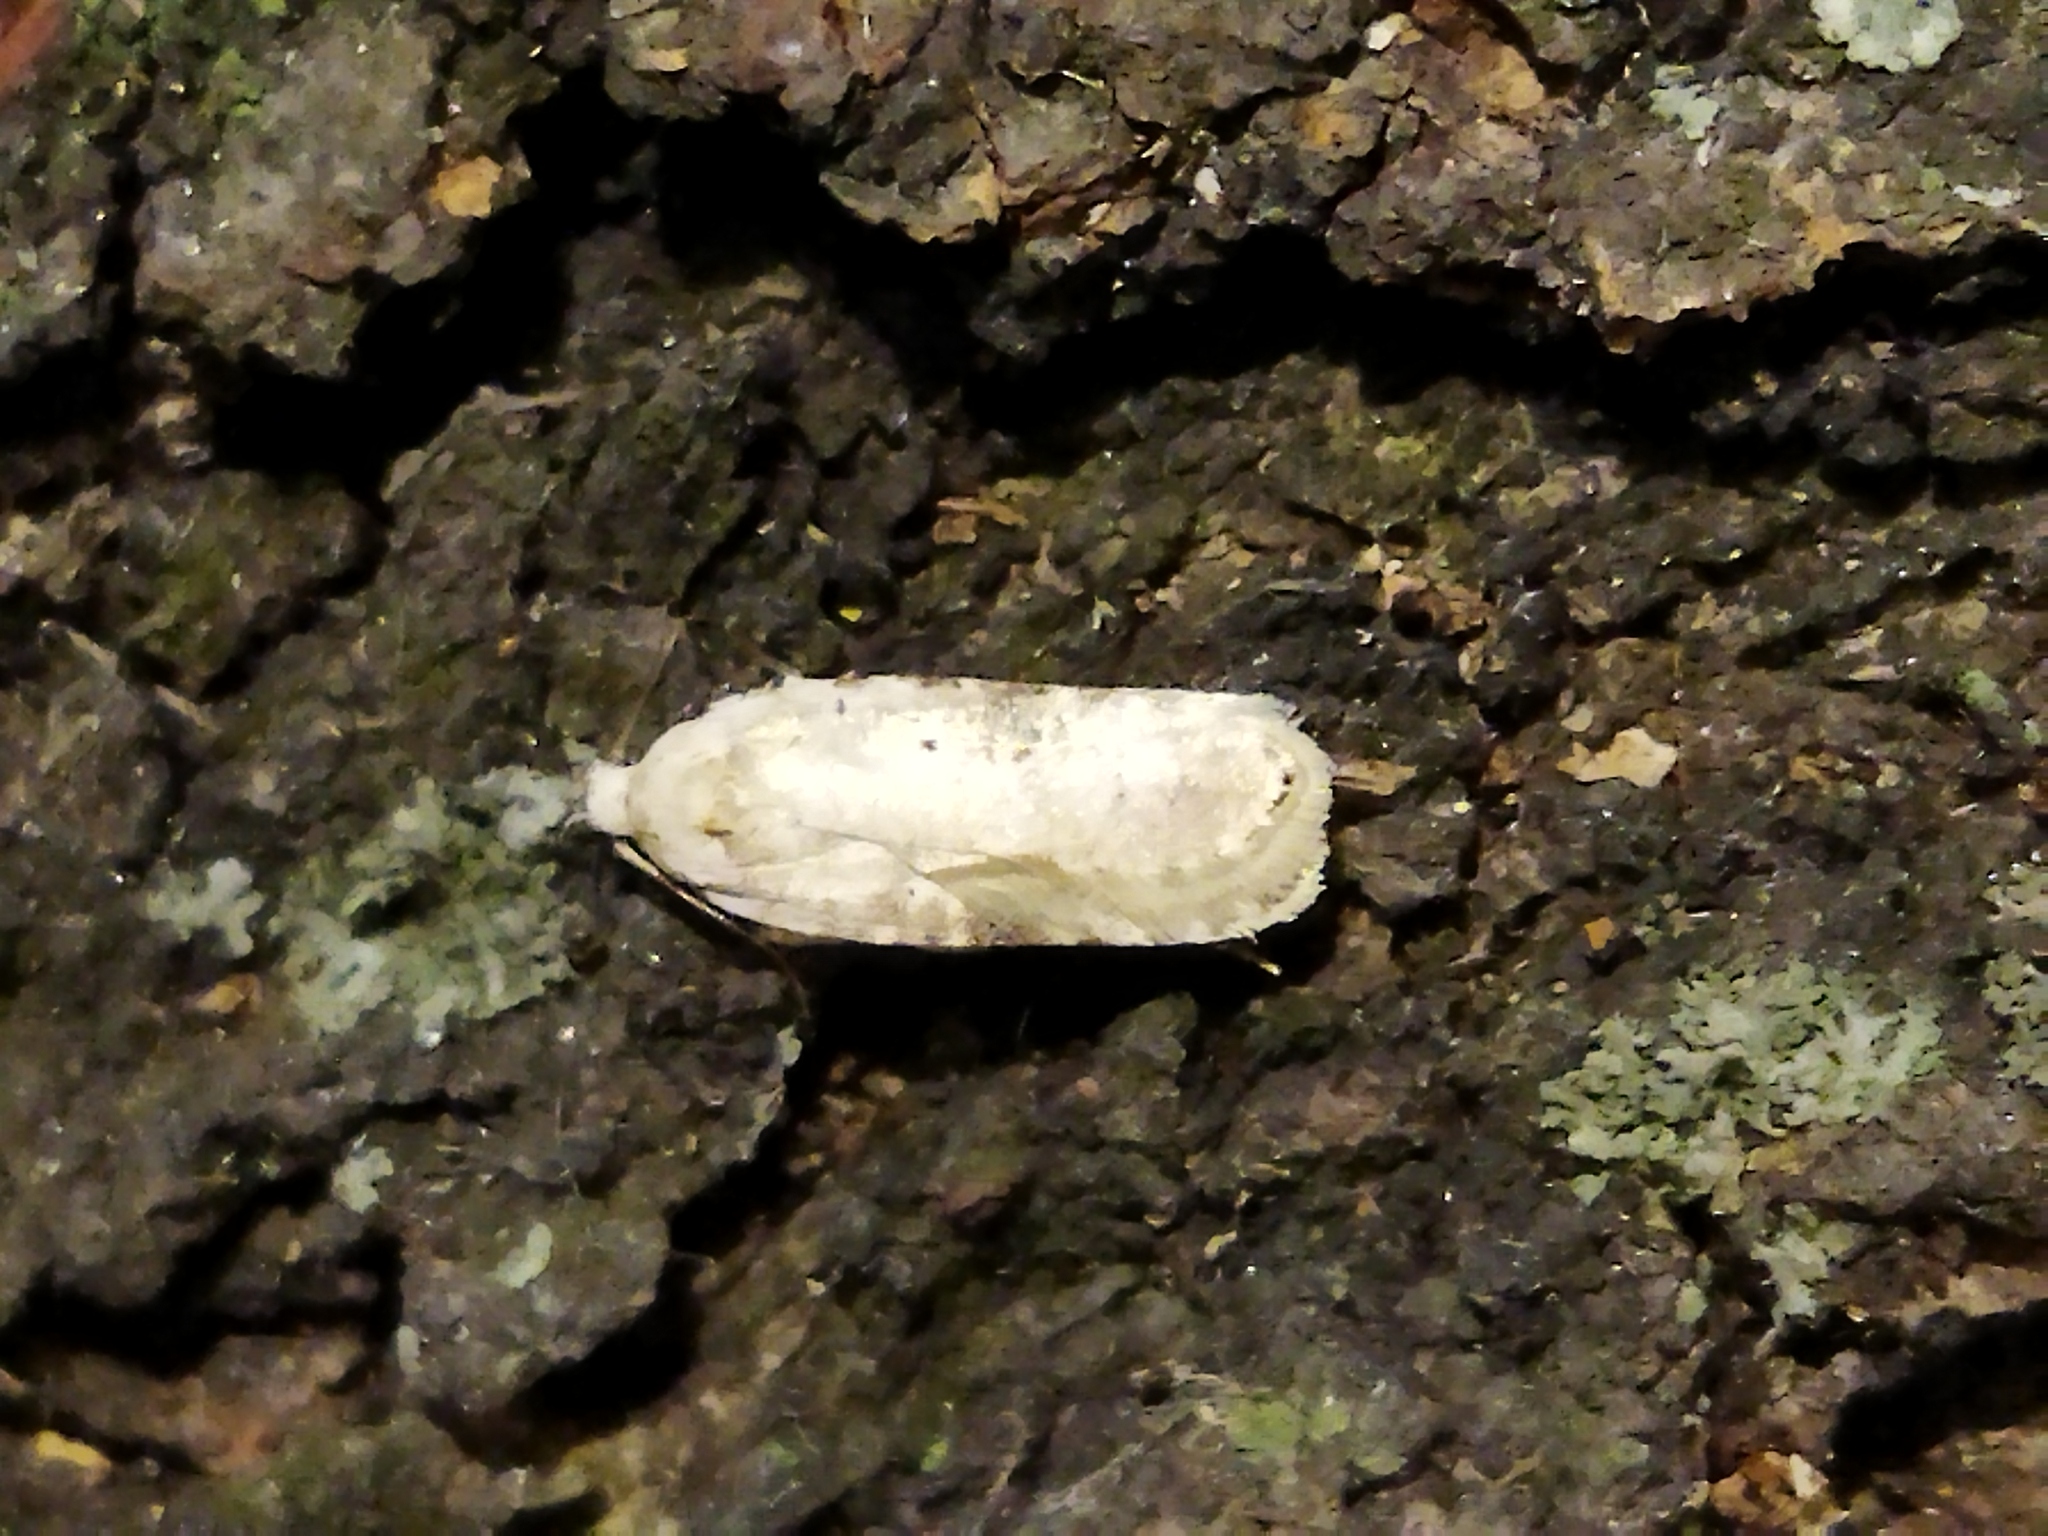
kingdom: Animalia
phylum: Arthropoda
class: Insecta
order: Lepidoptera
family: Depressariidae
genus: Agonopterix
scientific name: Agonopterix alstroemeriana
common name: Moth
